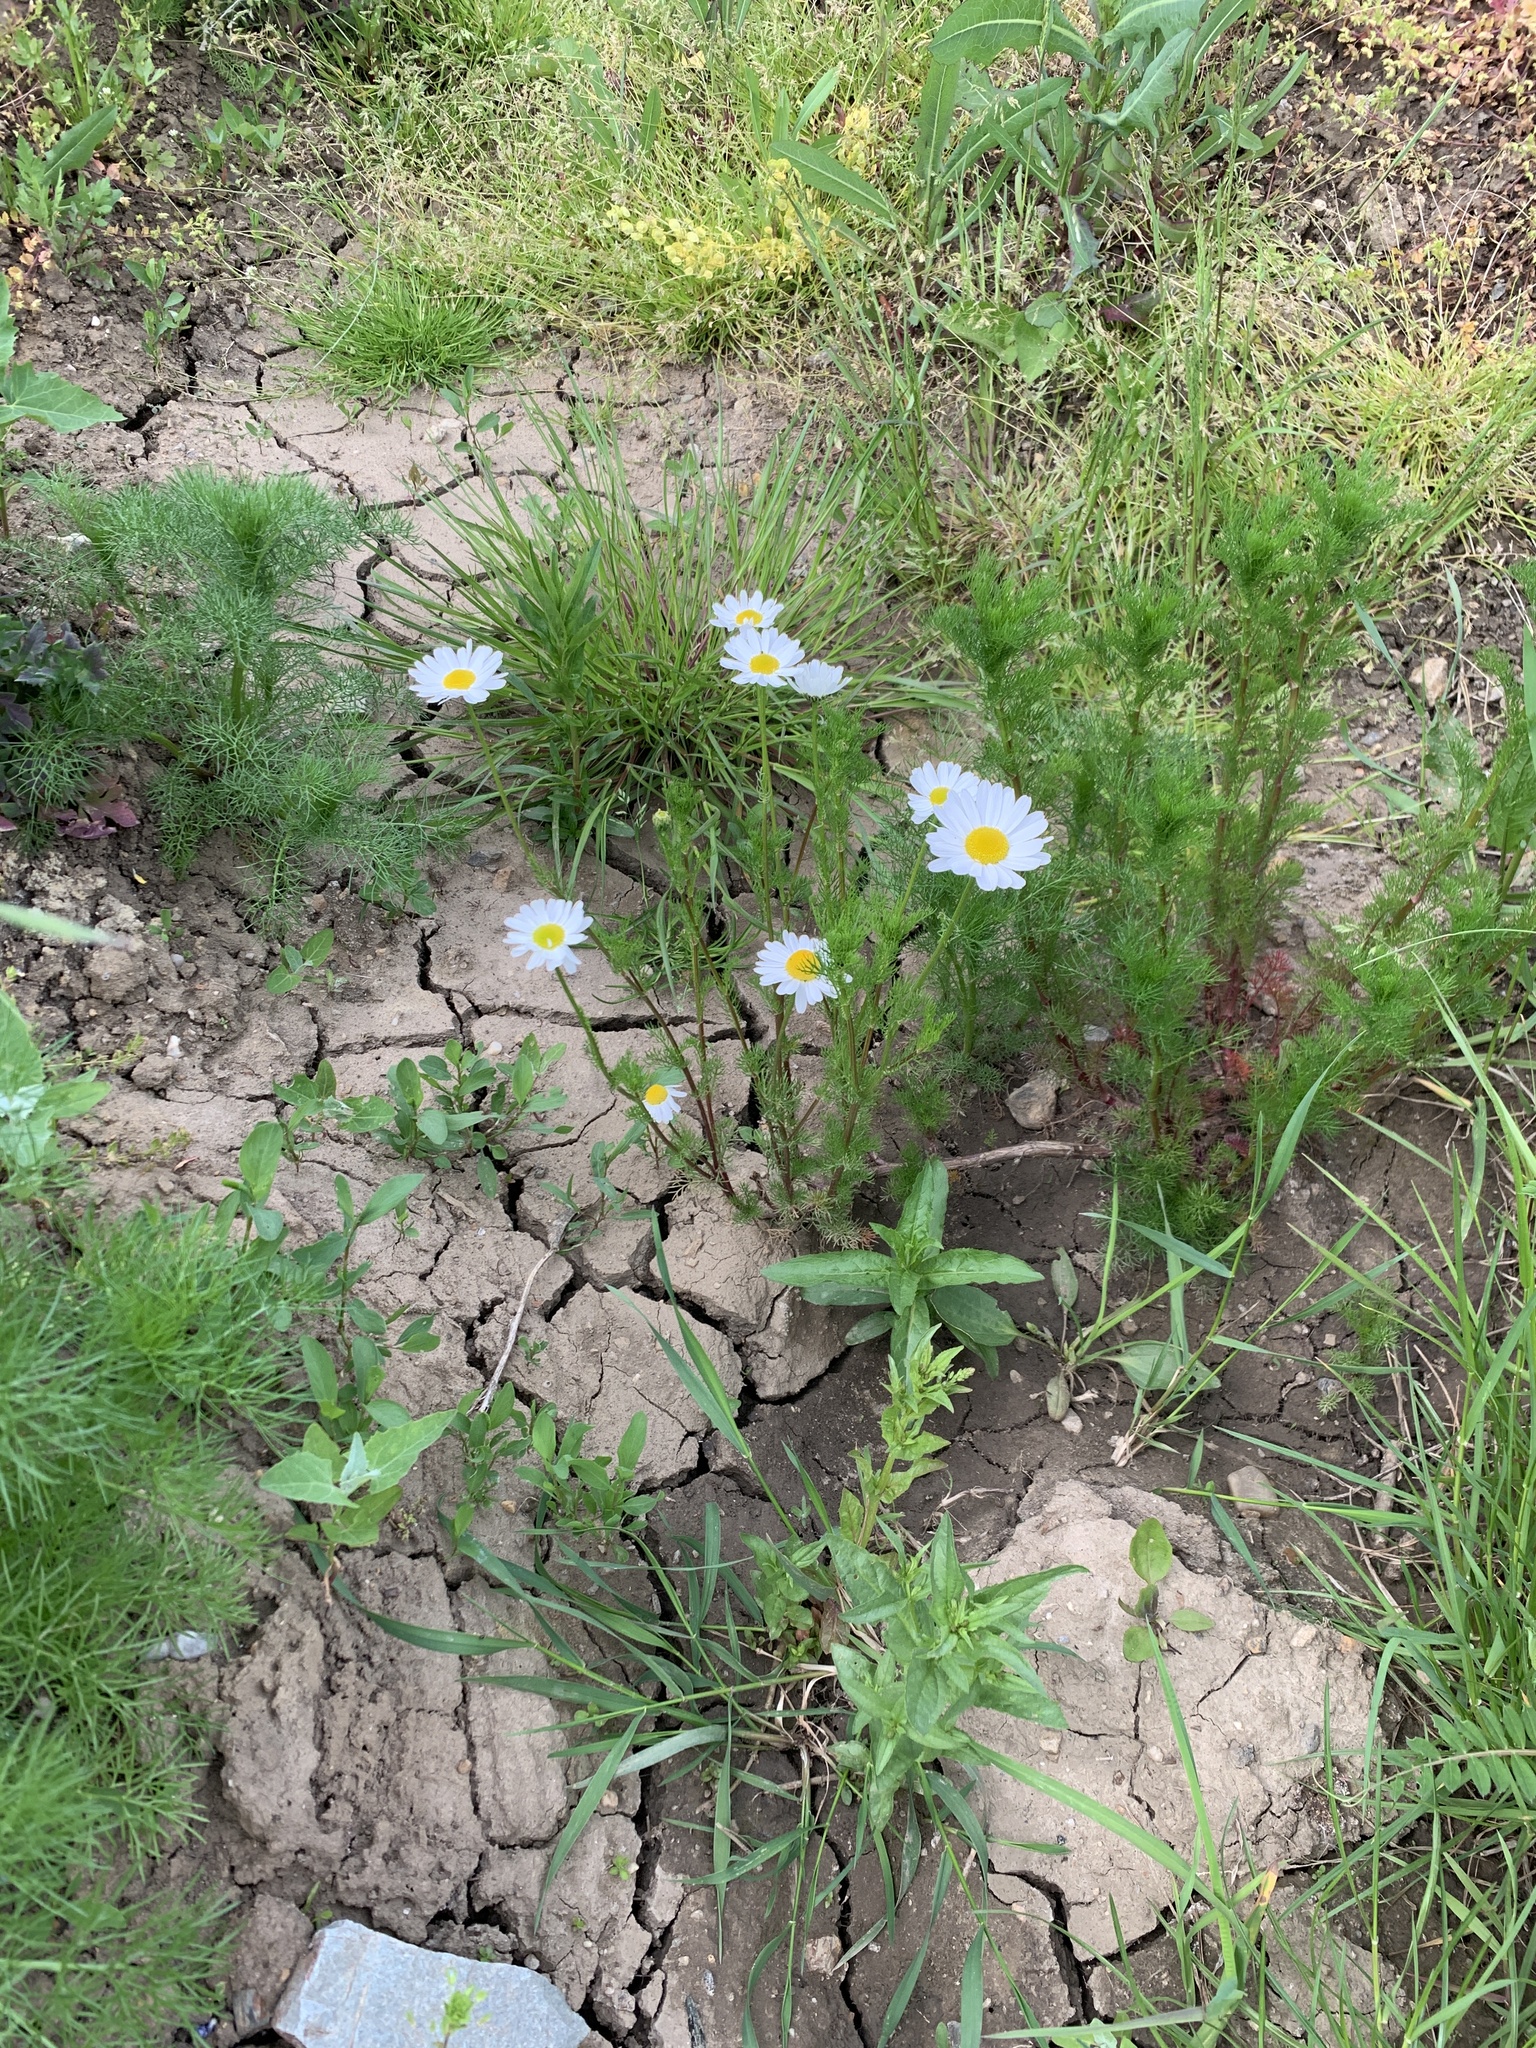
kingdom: Plantae
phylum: Tracheophyta
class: Magnoliopsida
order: Asterales
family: Asteraceae
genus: Tripleurospermum
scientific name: Tripleurospermum inodorum
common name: Scentless mayweed
